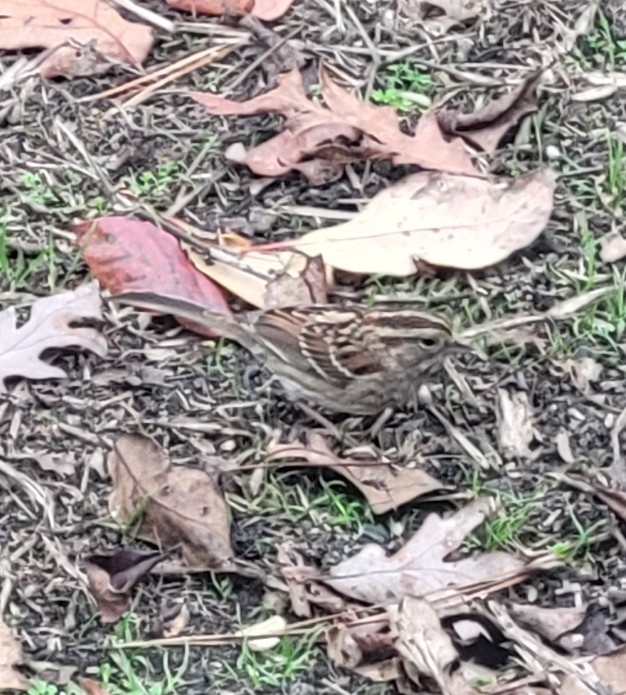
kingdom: Animalia
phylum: Chordata
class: Aves
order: Passeriformes
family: Passerellidae
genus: Zonotrichia
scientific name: Zonotrichia albicollis
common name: White-throated sparrow
